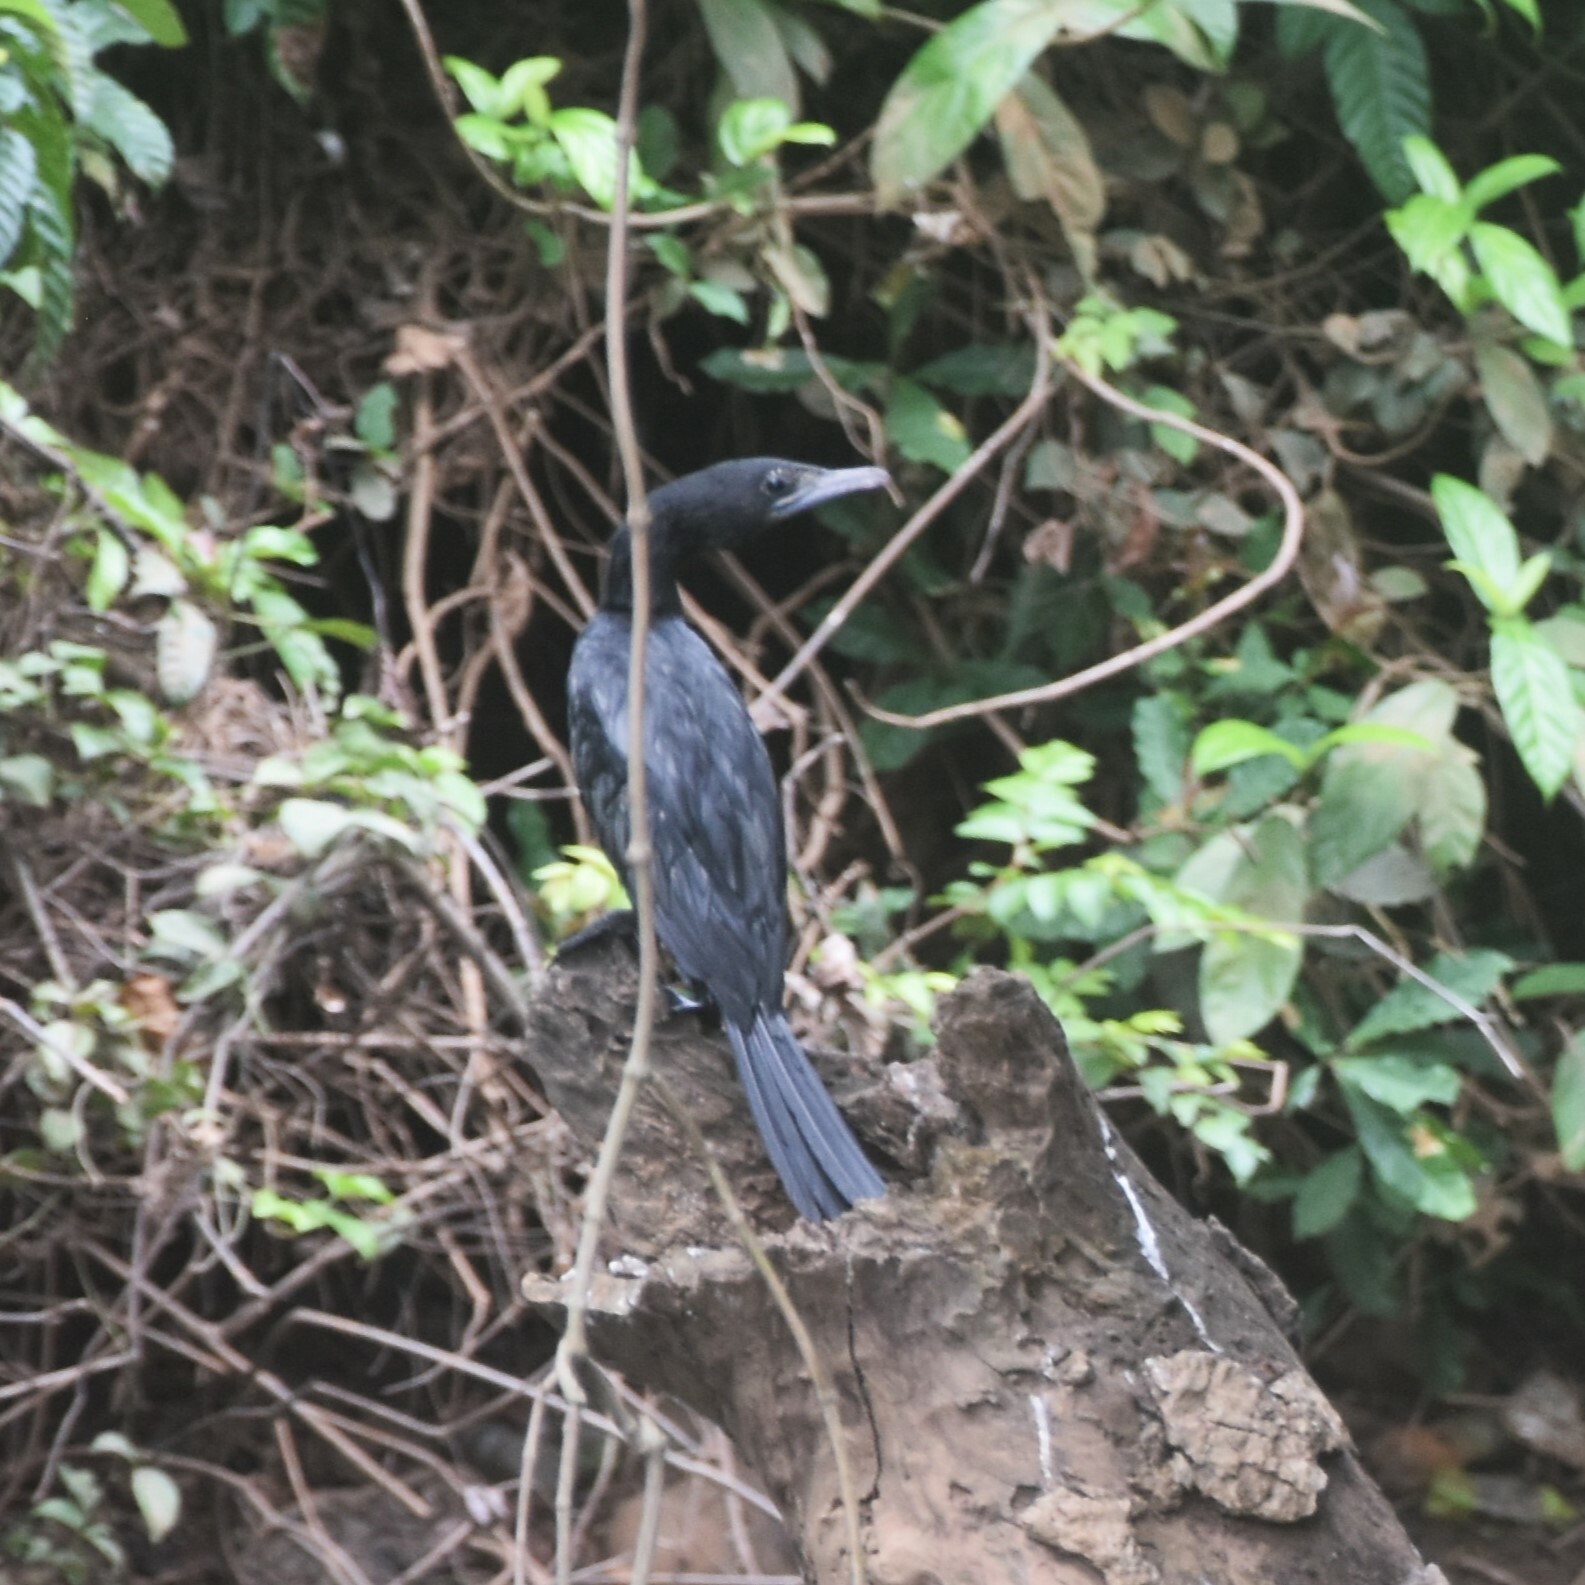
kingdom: Animalia
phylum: Chordata
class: Aves
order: Suliformes
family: Phalacrocoracidae
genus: Microcarbo
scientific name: Microcarbo niger
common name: Little cormorant
